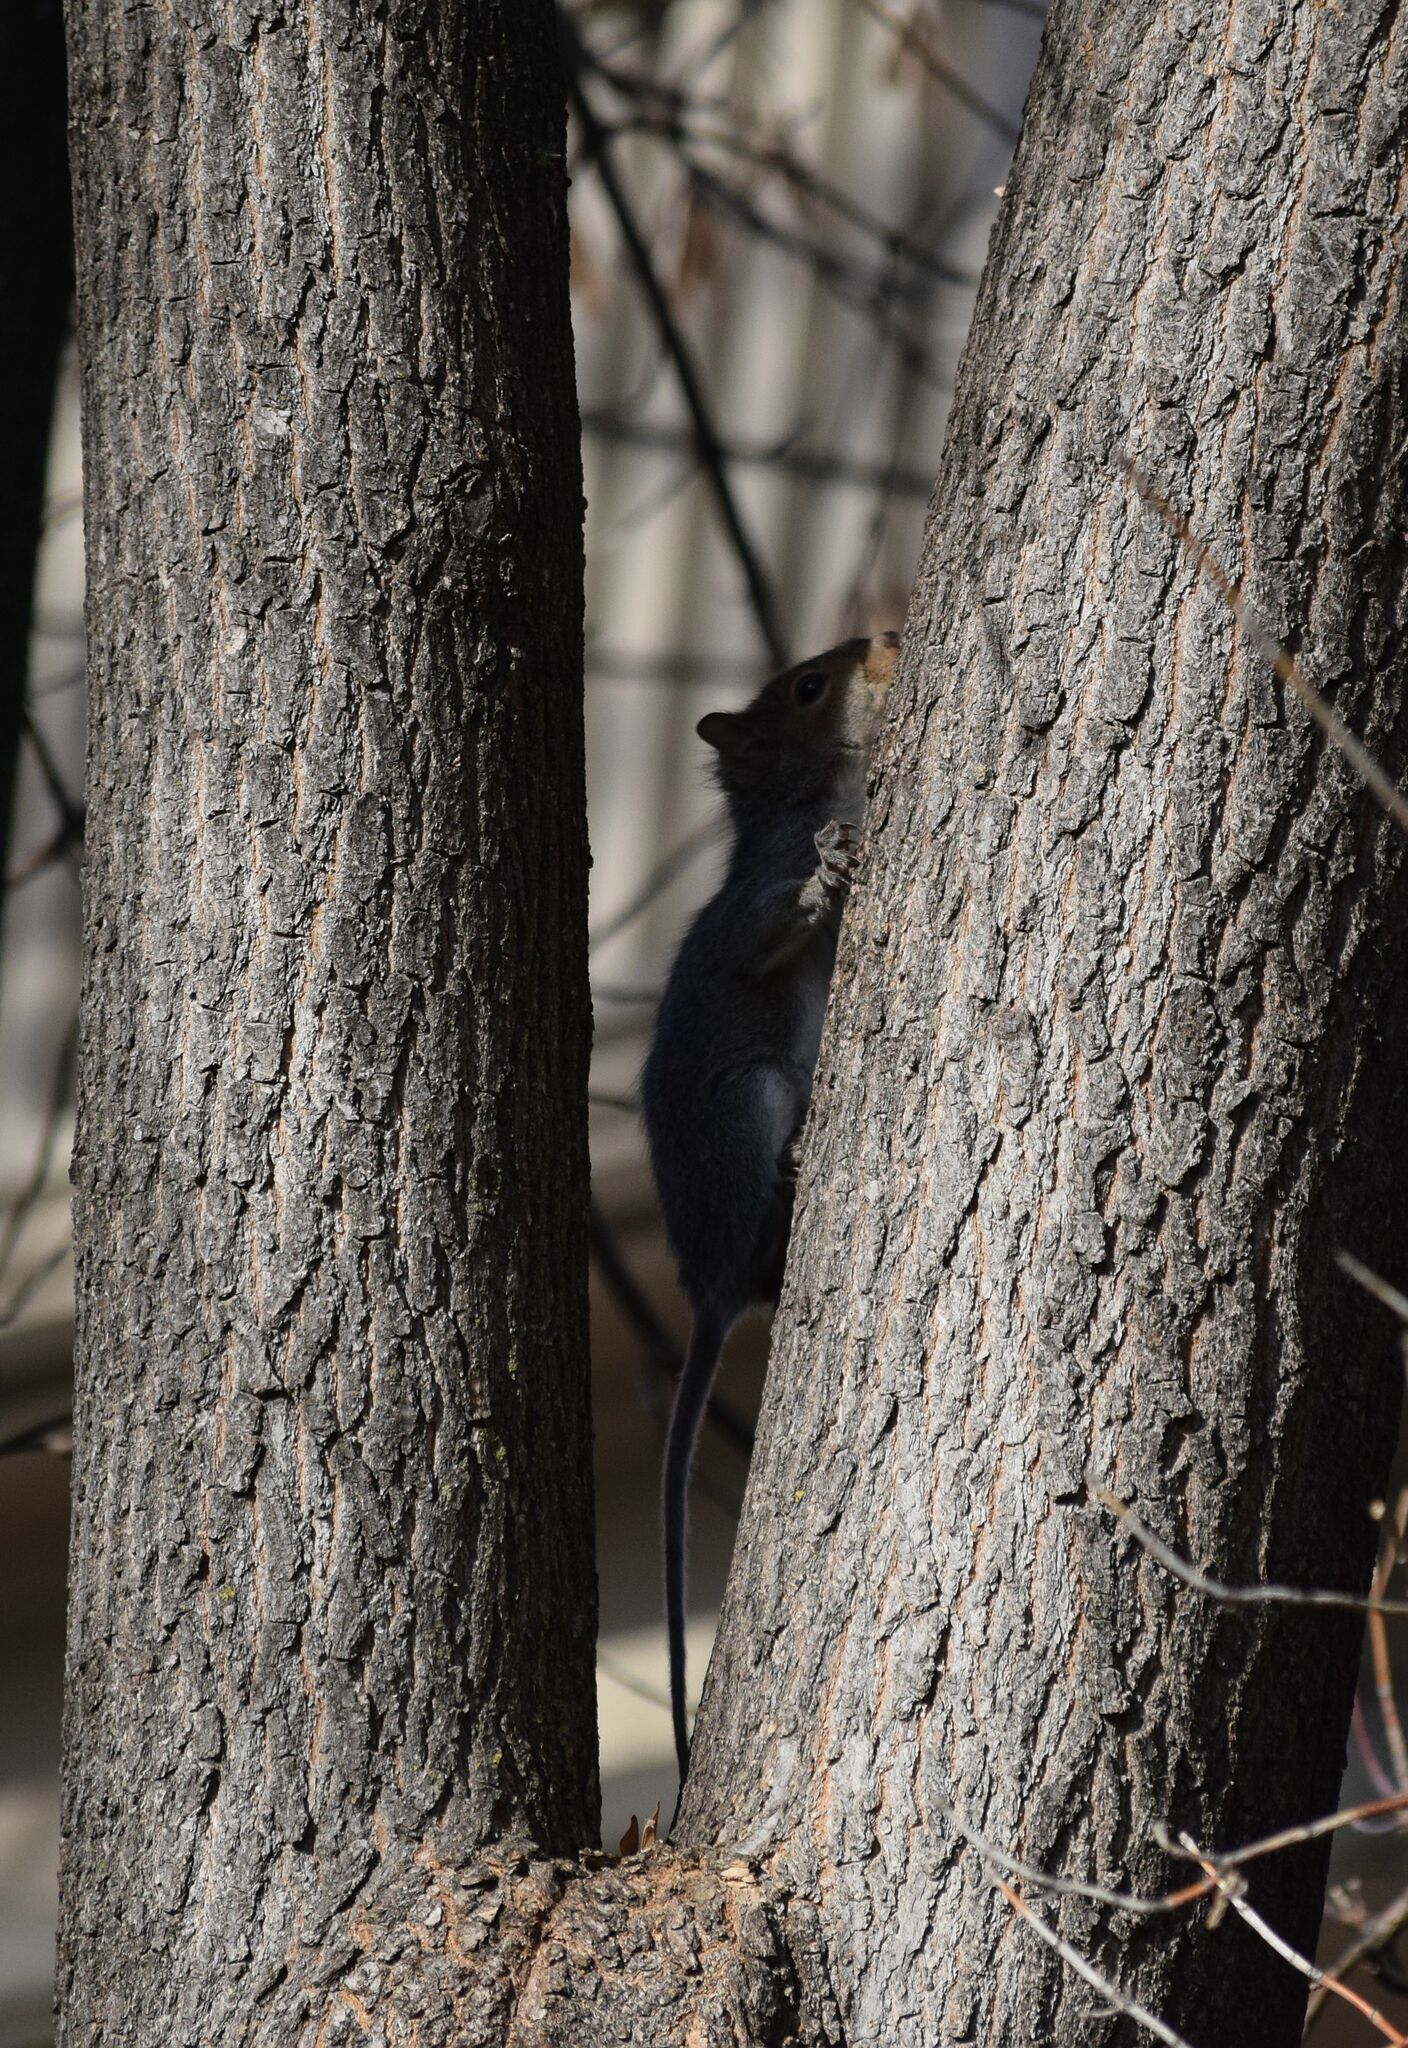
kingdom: Animalia
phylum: Chordata
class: Mammalia
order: Rodentia
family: Sciuridae
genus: Sciurus
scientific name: Sciurus carolinensis
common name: Eastern gray squirrel
